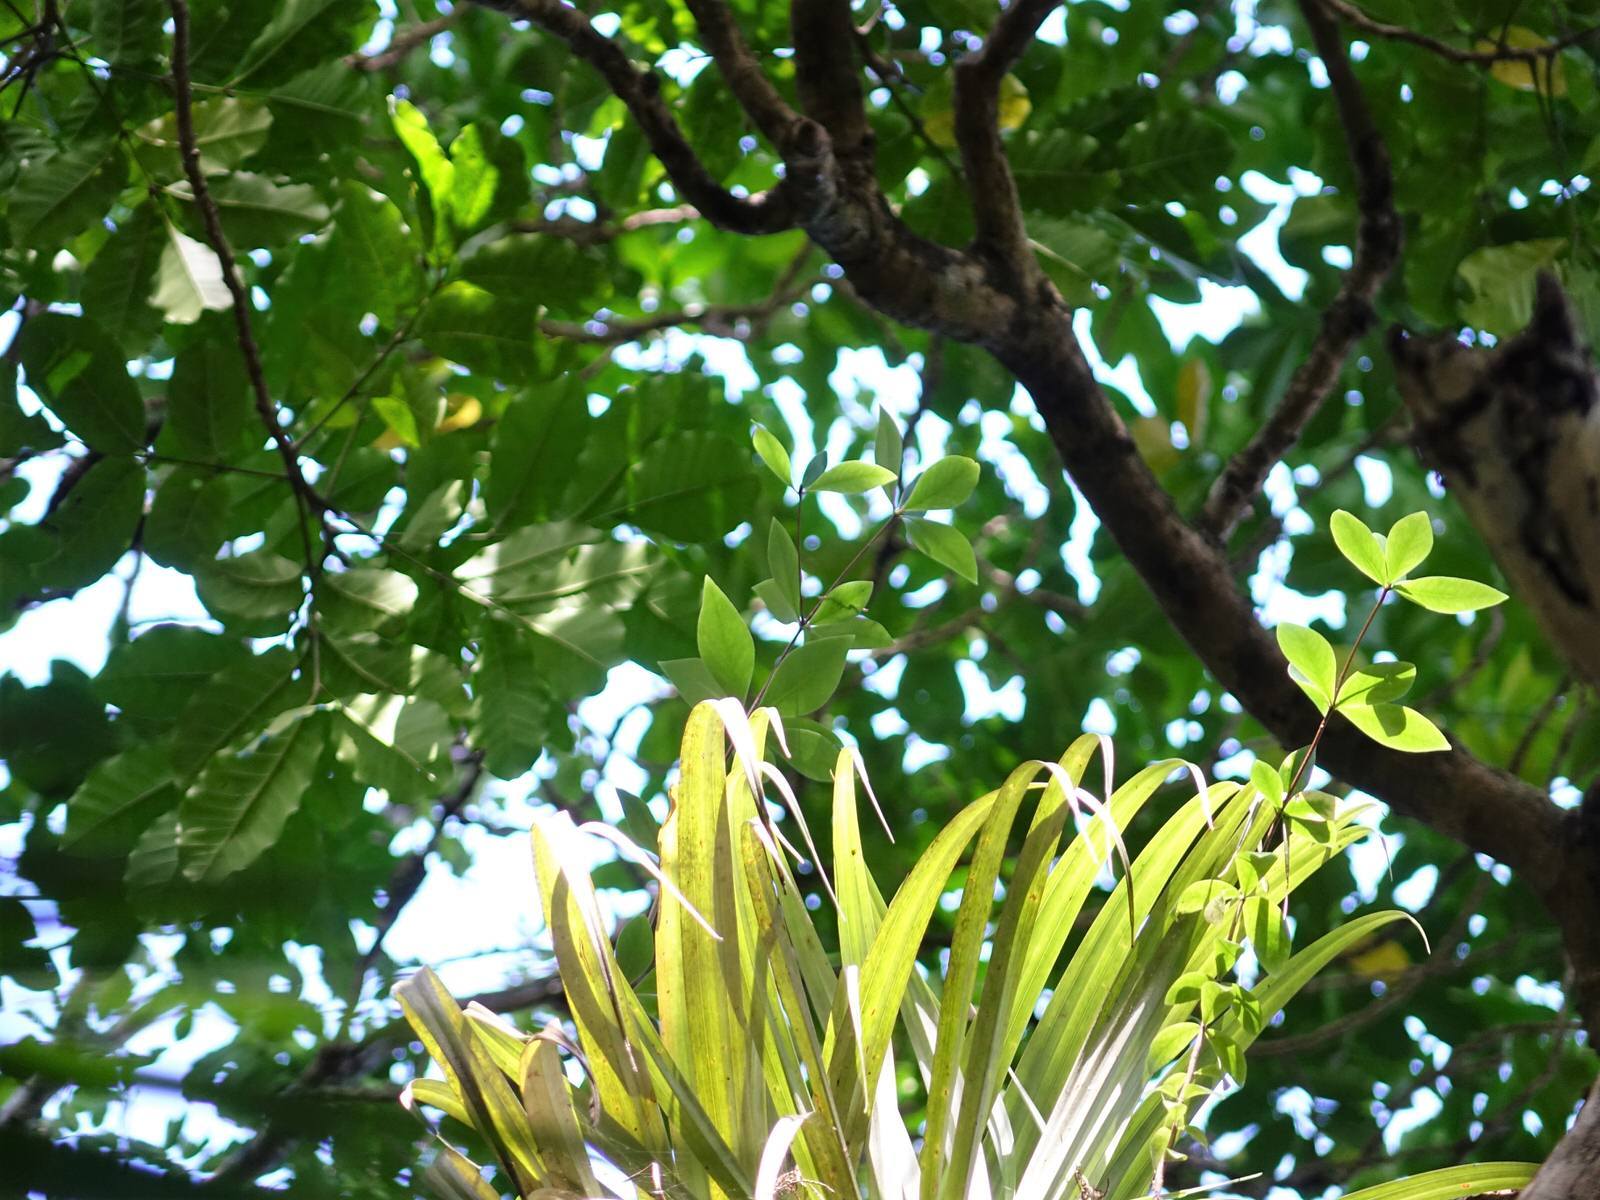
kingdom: Plantae
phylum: Tracheophyta
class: Magnoliopsida
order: Apiales
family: Pittosporaceae
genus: Pittosporum
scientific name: Pittosporum cornifolium
